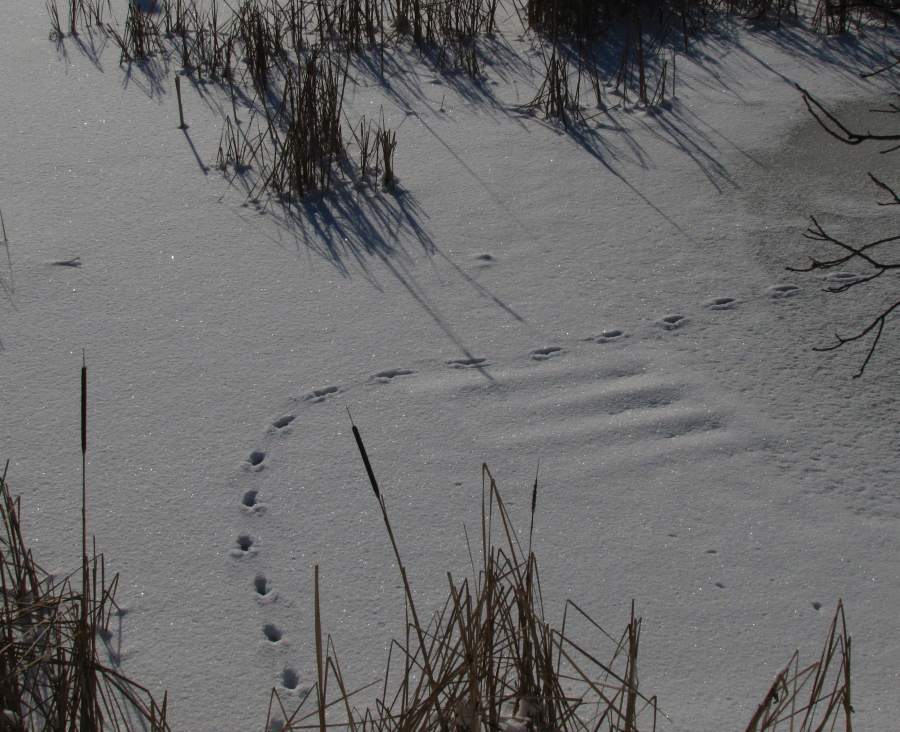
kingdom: Animalia
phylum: Chordata
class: Mammalia
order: Carnivora
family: Canidae
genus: Vulpes
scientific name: Vulpes vulpes
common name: Red fox
